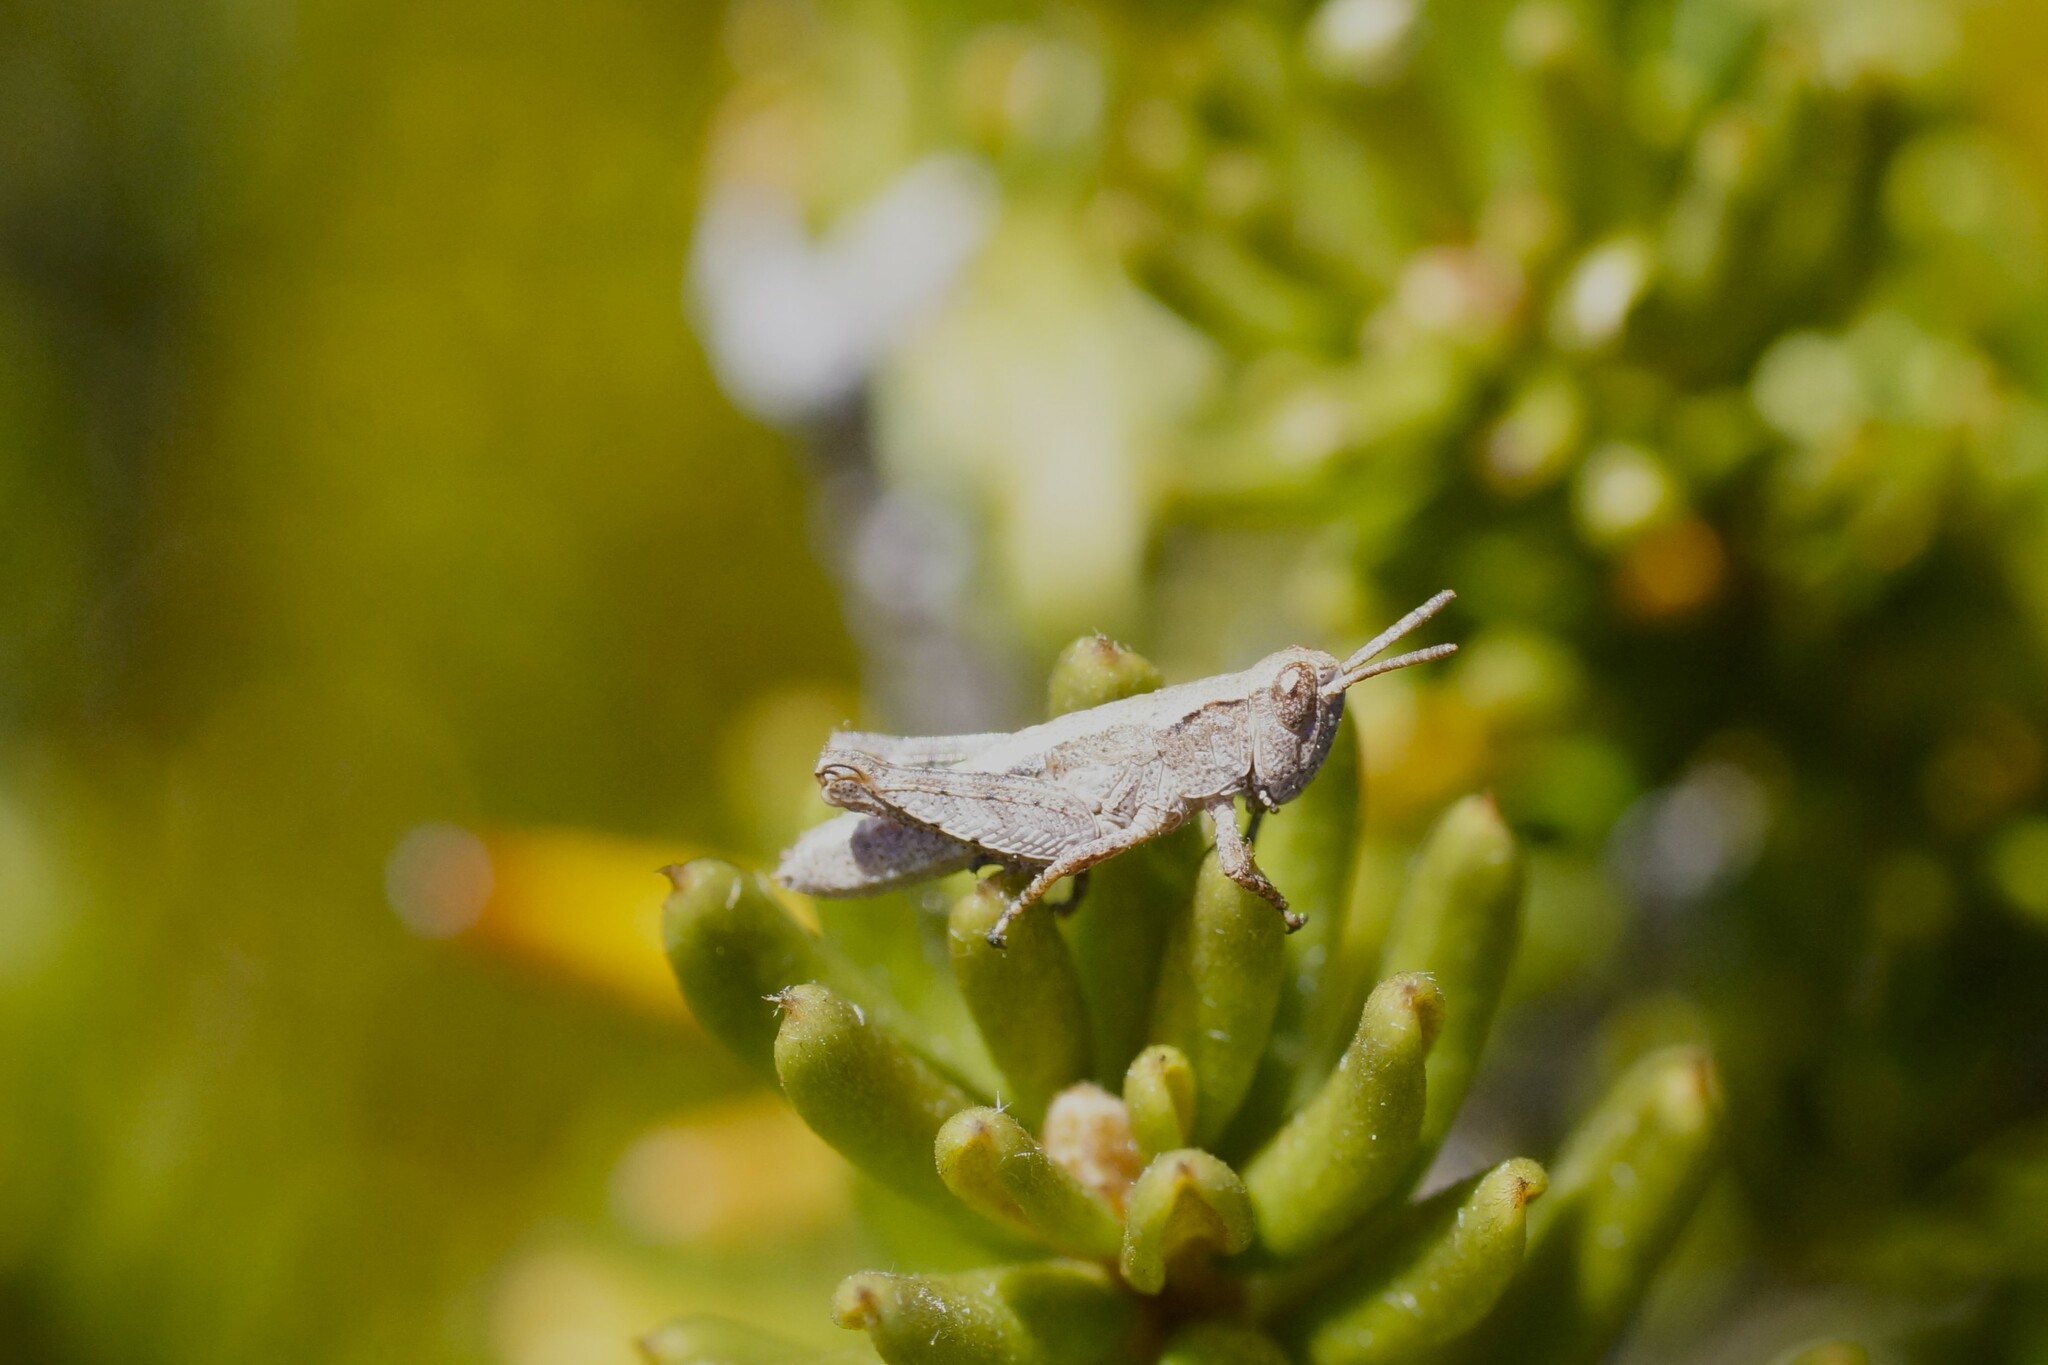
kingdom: Animalia
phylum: Arthropoda
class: Insecta
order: Orthoptera
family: Acrididae
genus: Tasmaniacris
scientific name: Tasmaniacris tasmaniensis
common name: Tasmanian grasshopper
